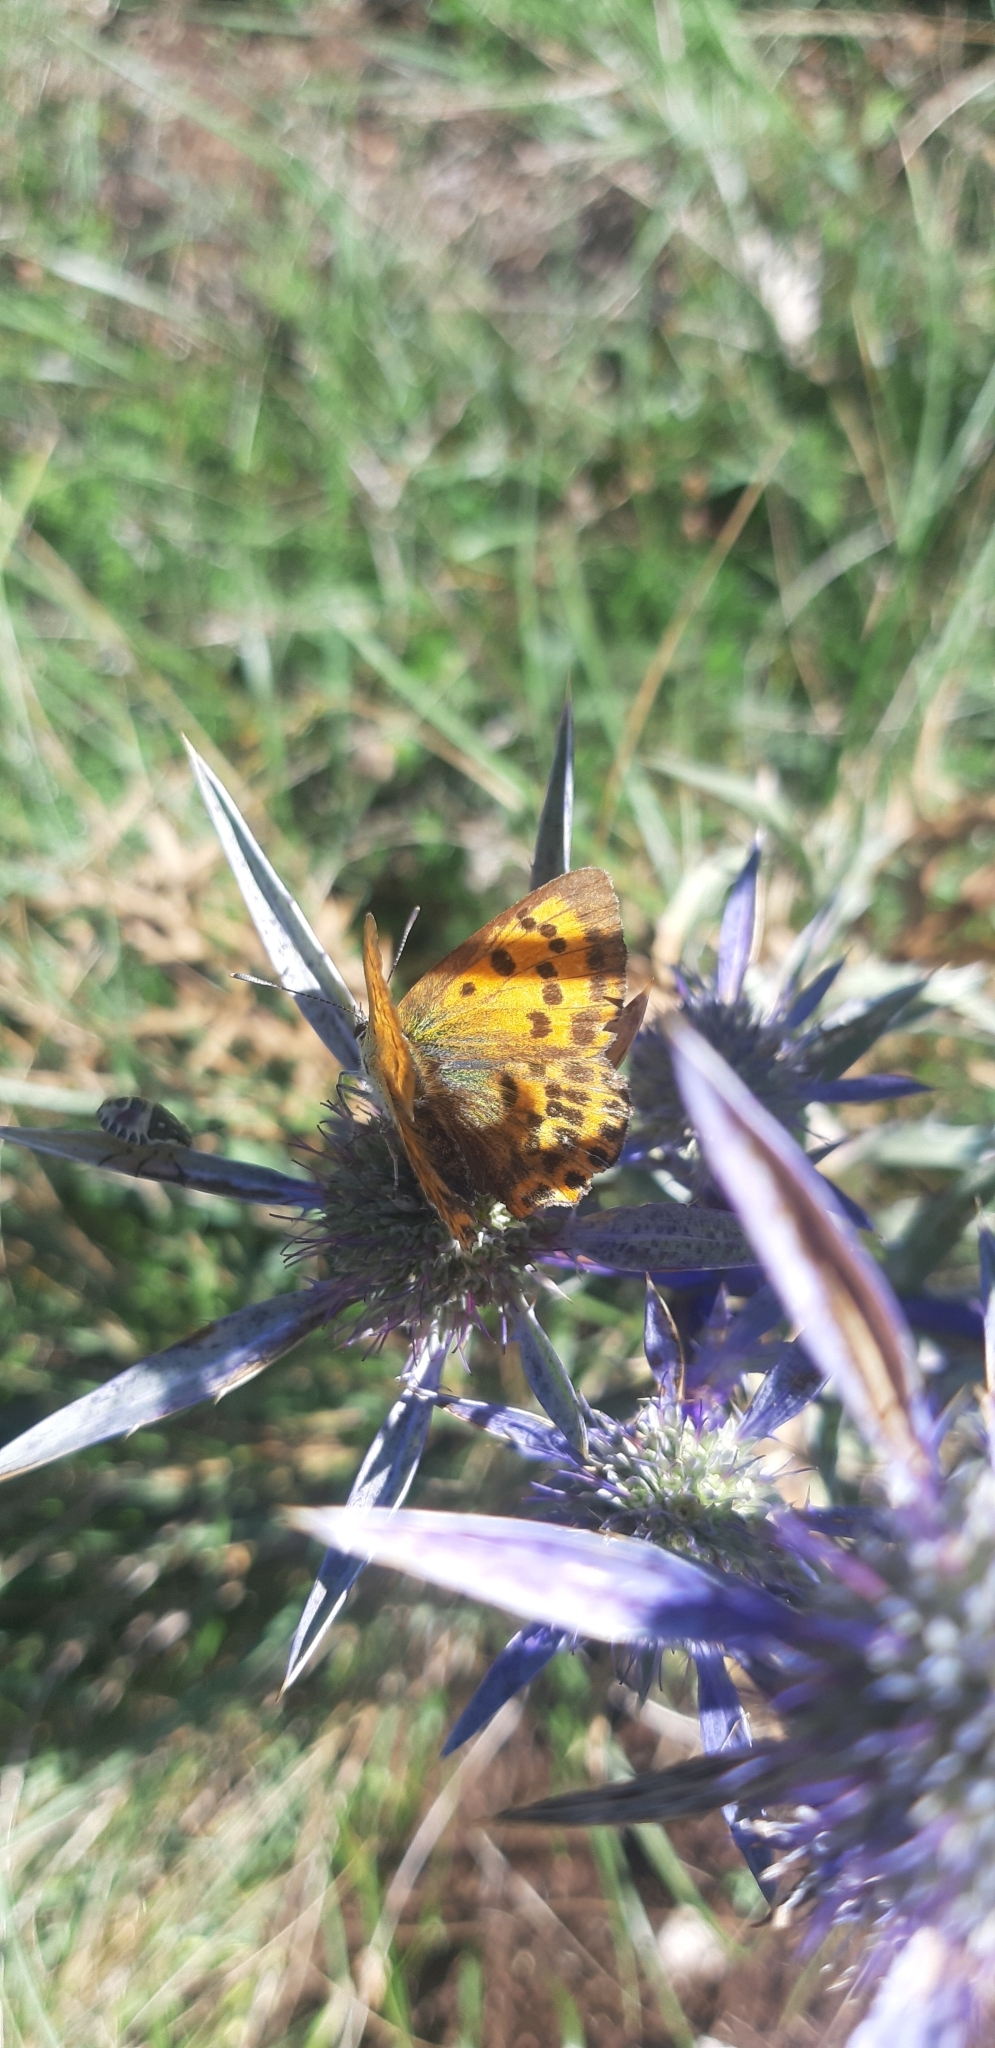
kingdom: Animalia
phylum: Arthropoda
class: Insecta
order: Lepidoptera
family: Lycaenidae
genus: Lycaena
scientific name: Lycaena virgaureae
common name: Scarce copper
